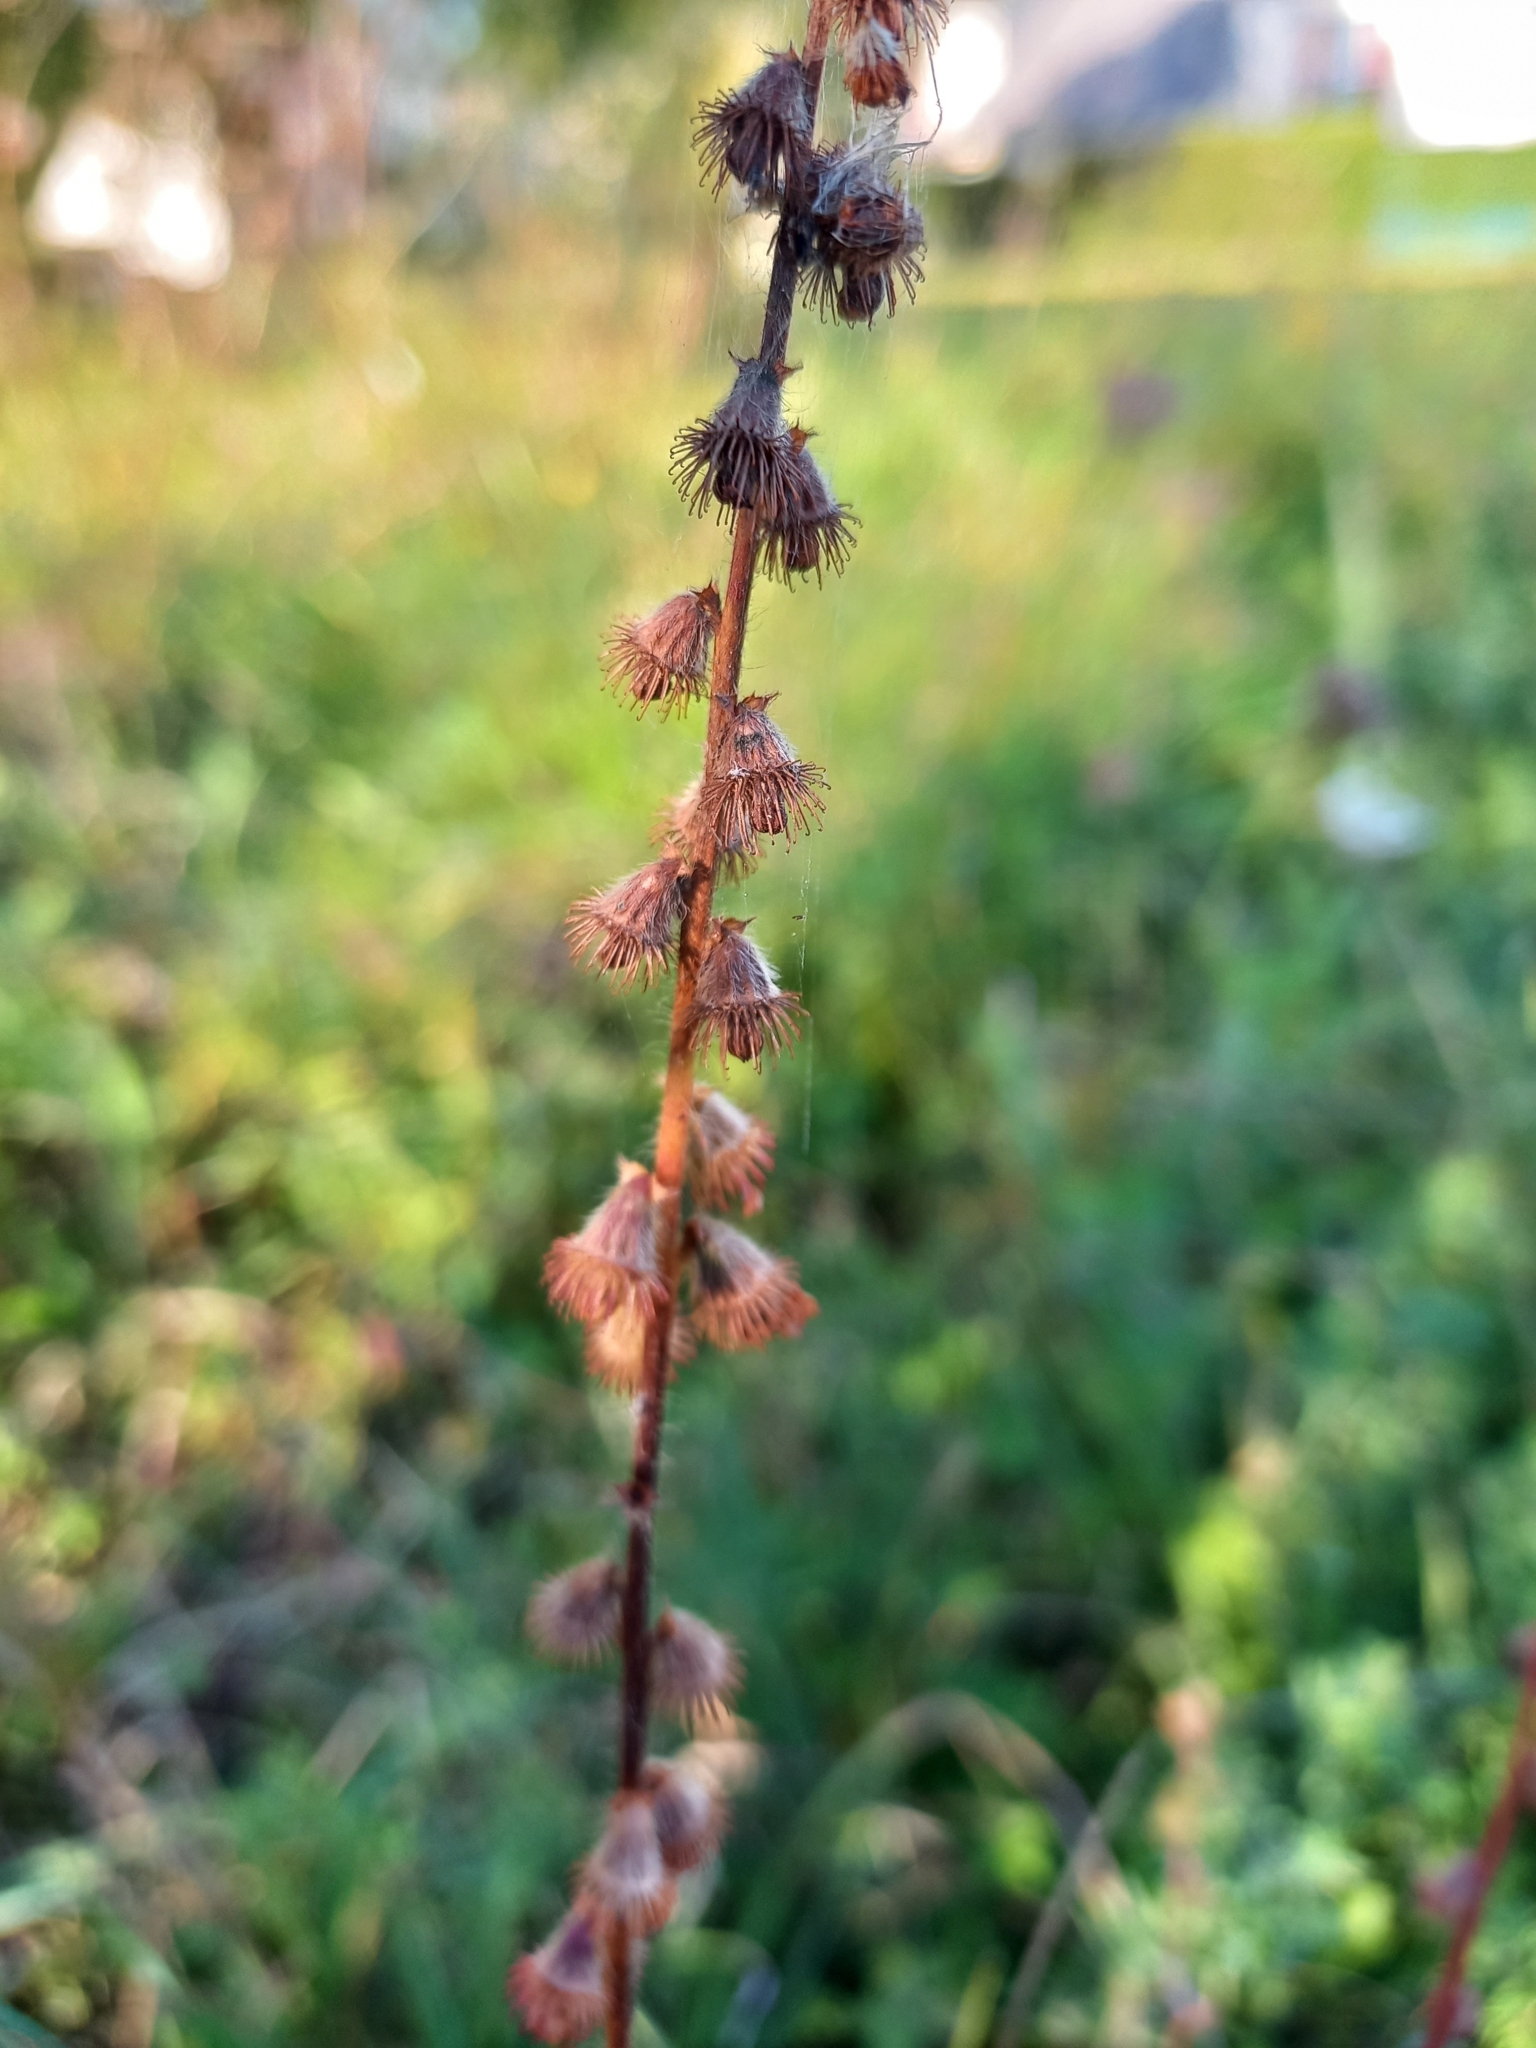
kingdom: Plantae
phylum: Tracheophyta
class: Magnoliopsida
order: Rosales
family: Rosaceae
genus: Agrimonia
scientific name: Agrimonia eupatoria
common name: Agrimony
